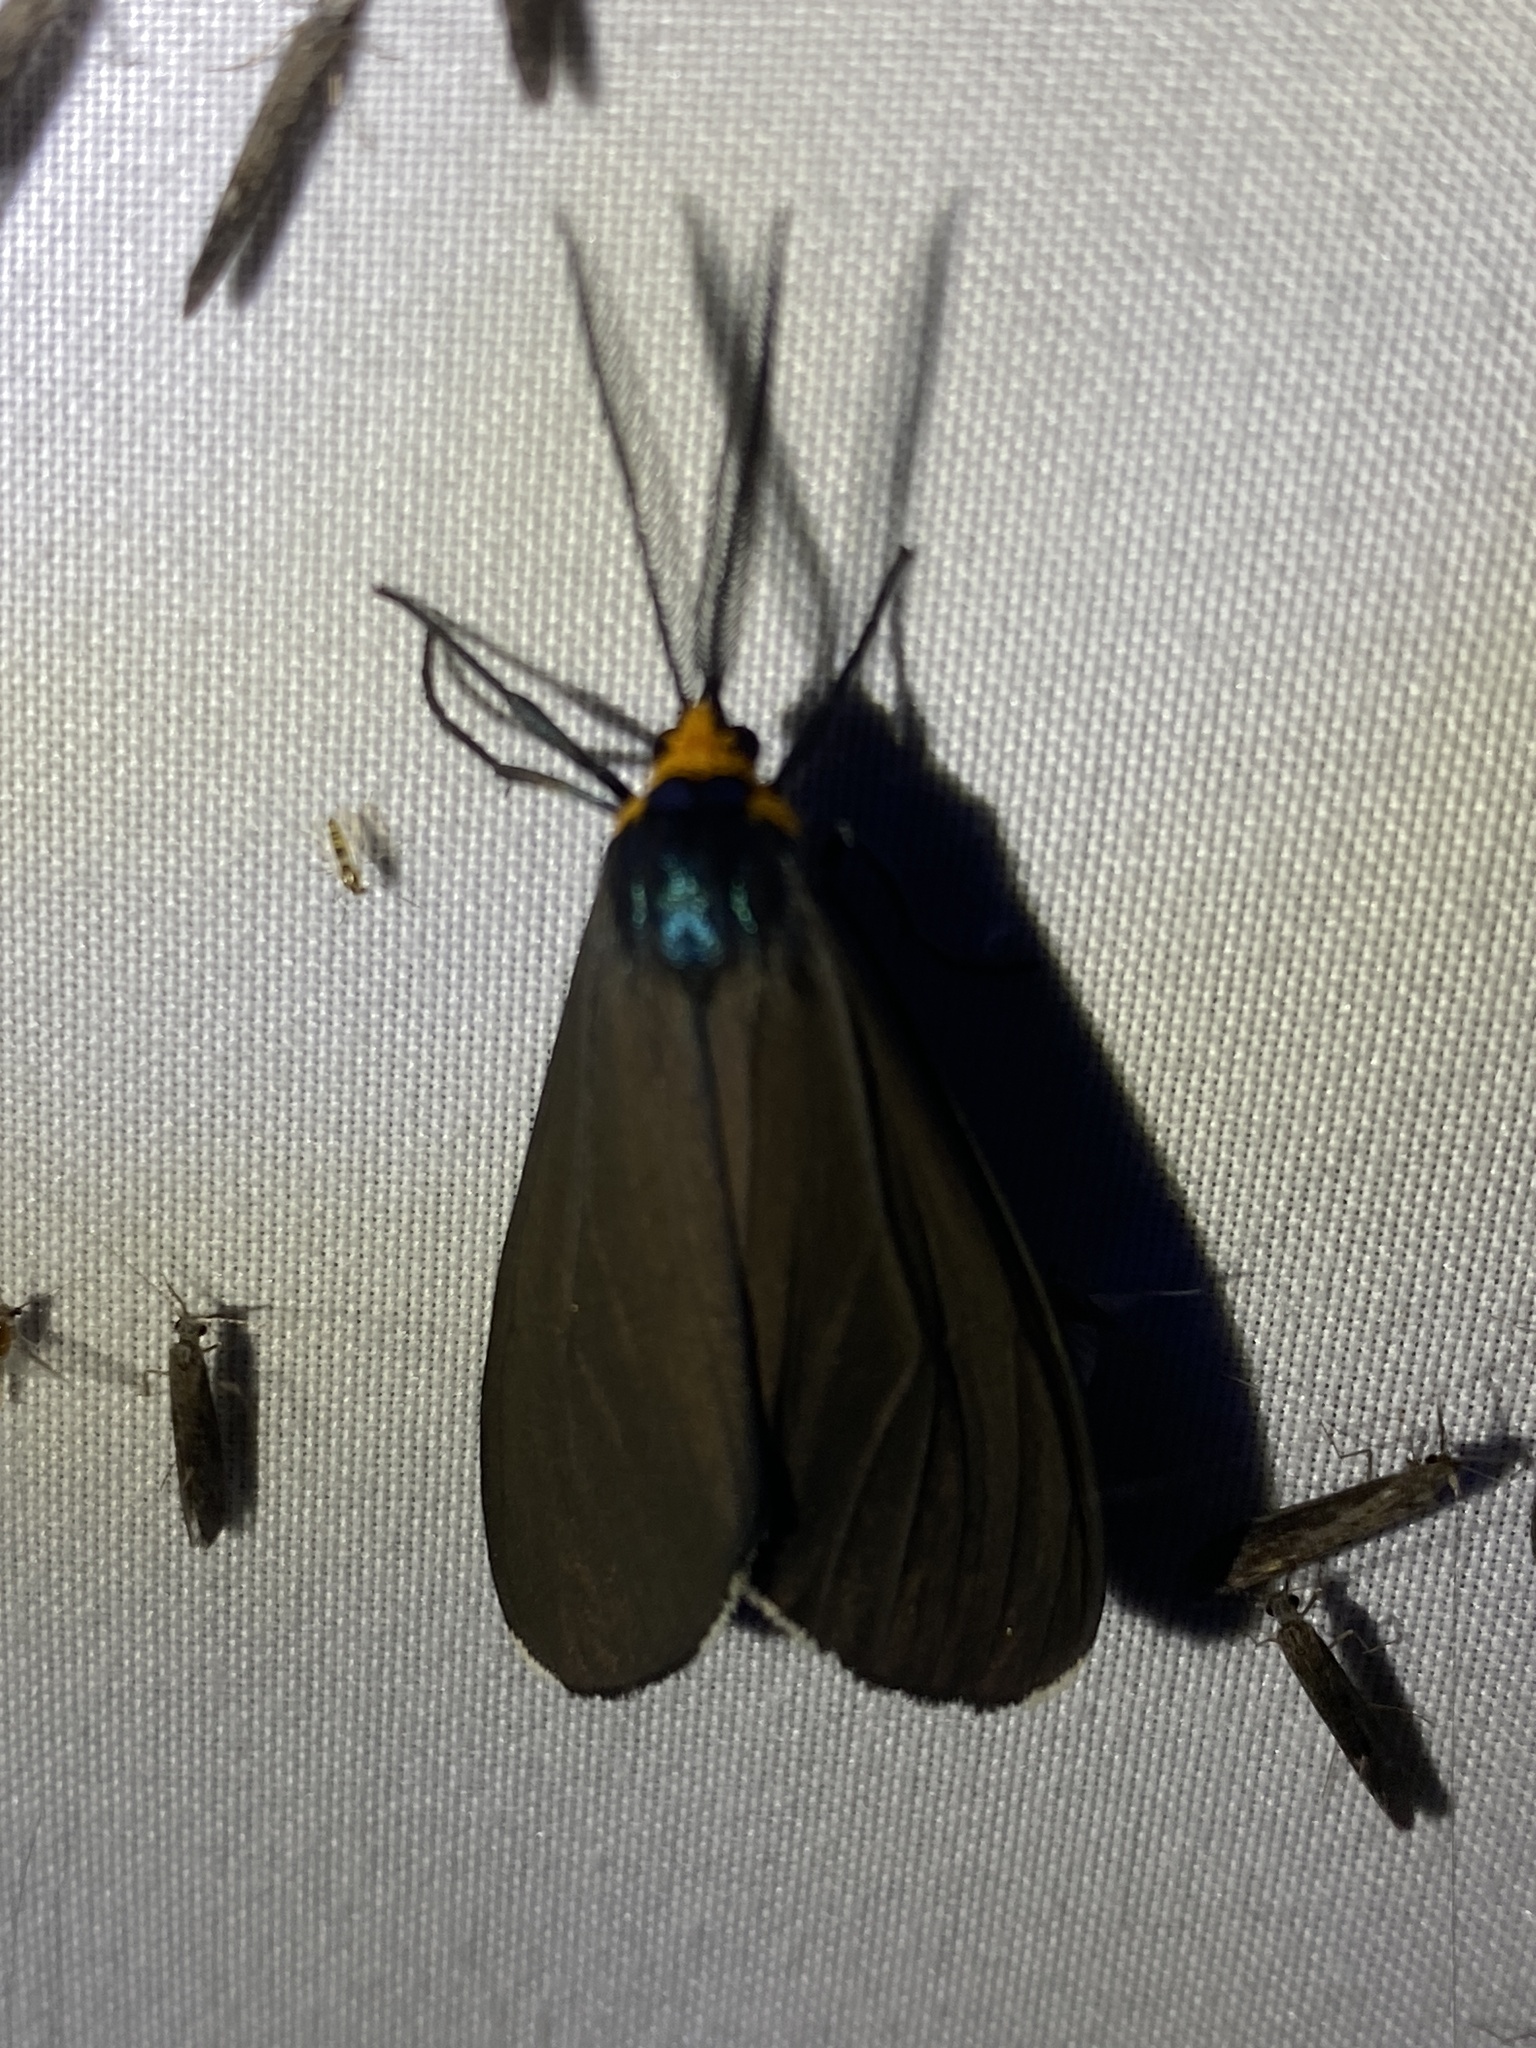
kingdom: Animalia
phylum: Arthropoda
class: Insecta
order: Lepidoptera
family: Erebidae
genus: Ctenucha
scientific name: Ctenucha virginica
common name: Virginia ctenucha moth
